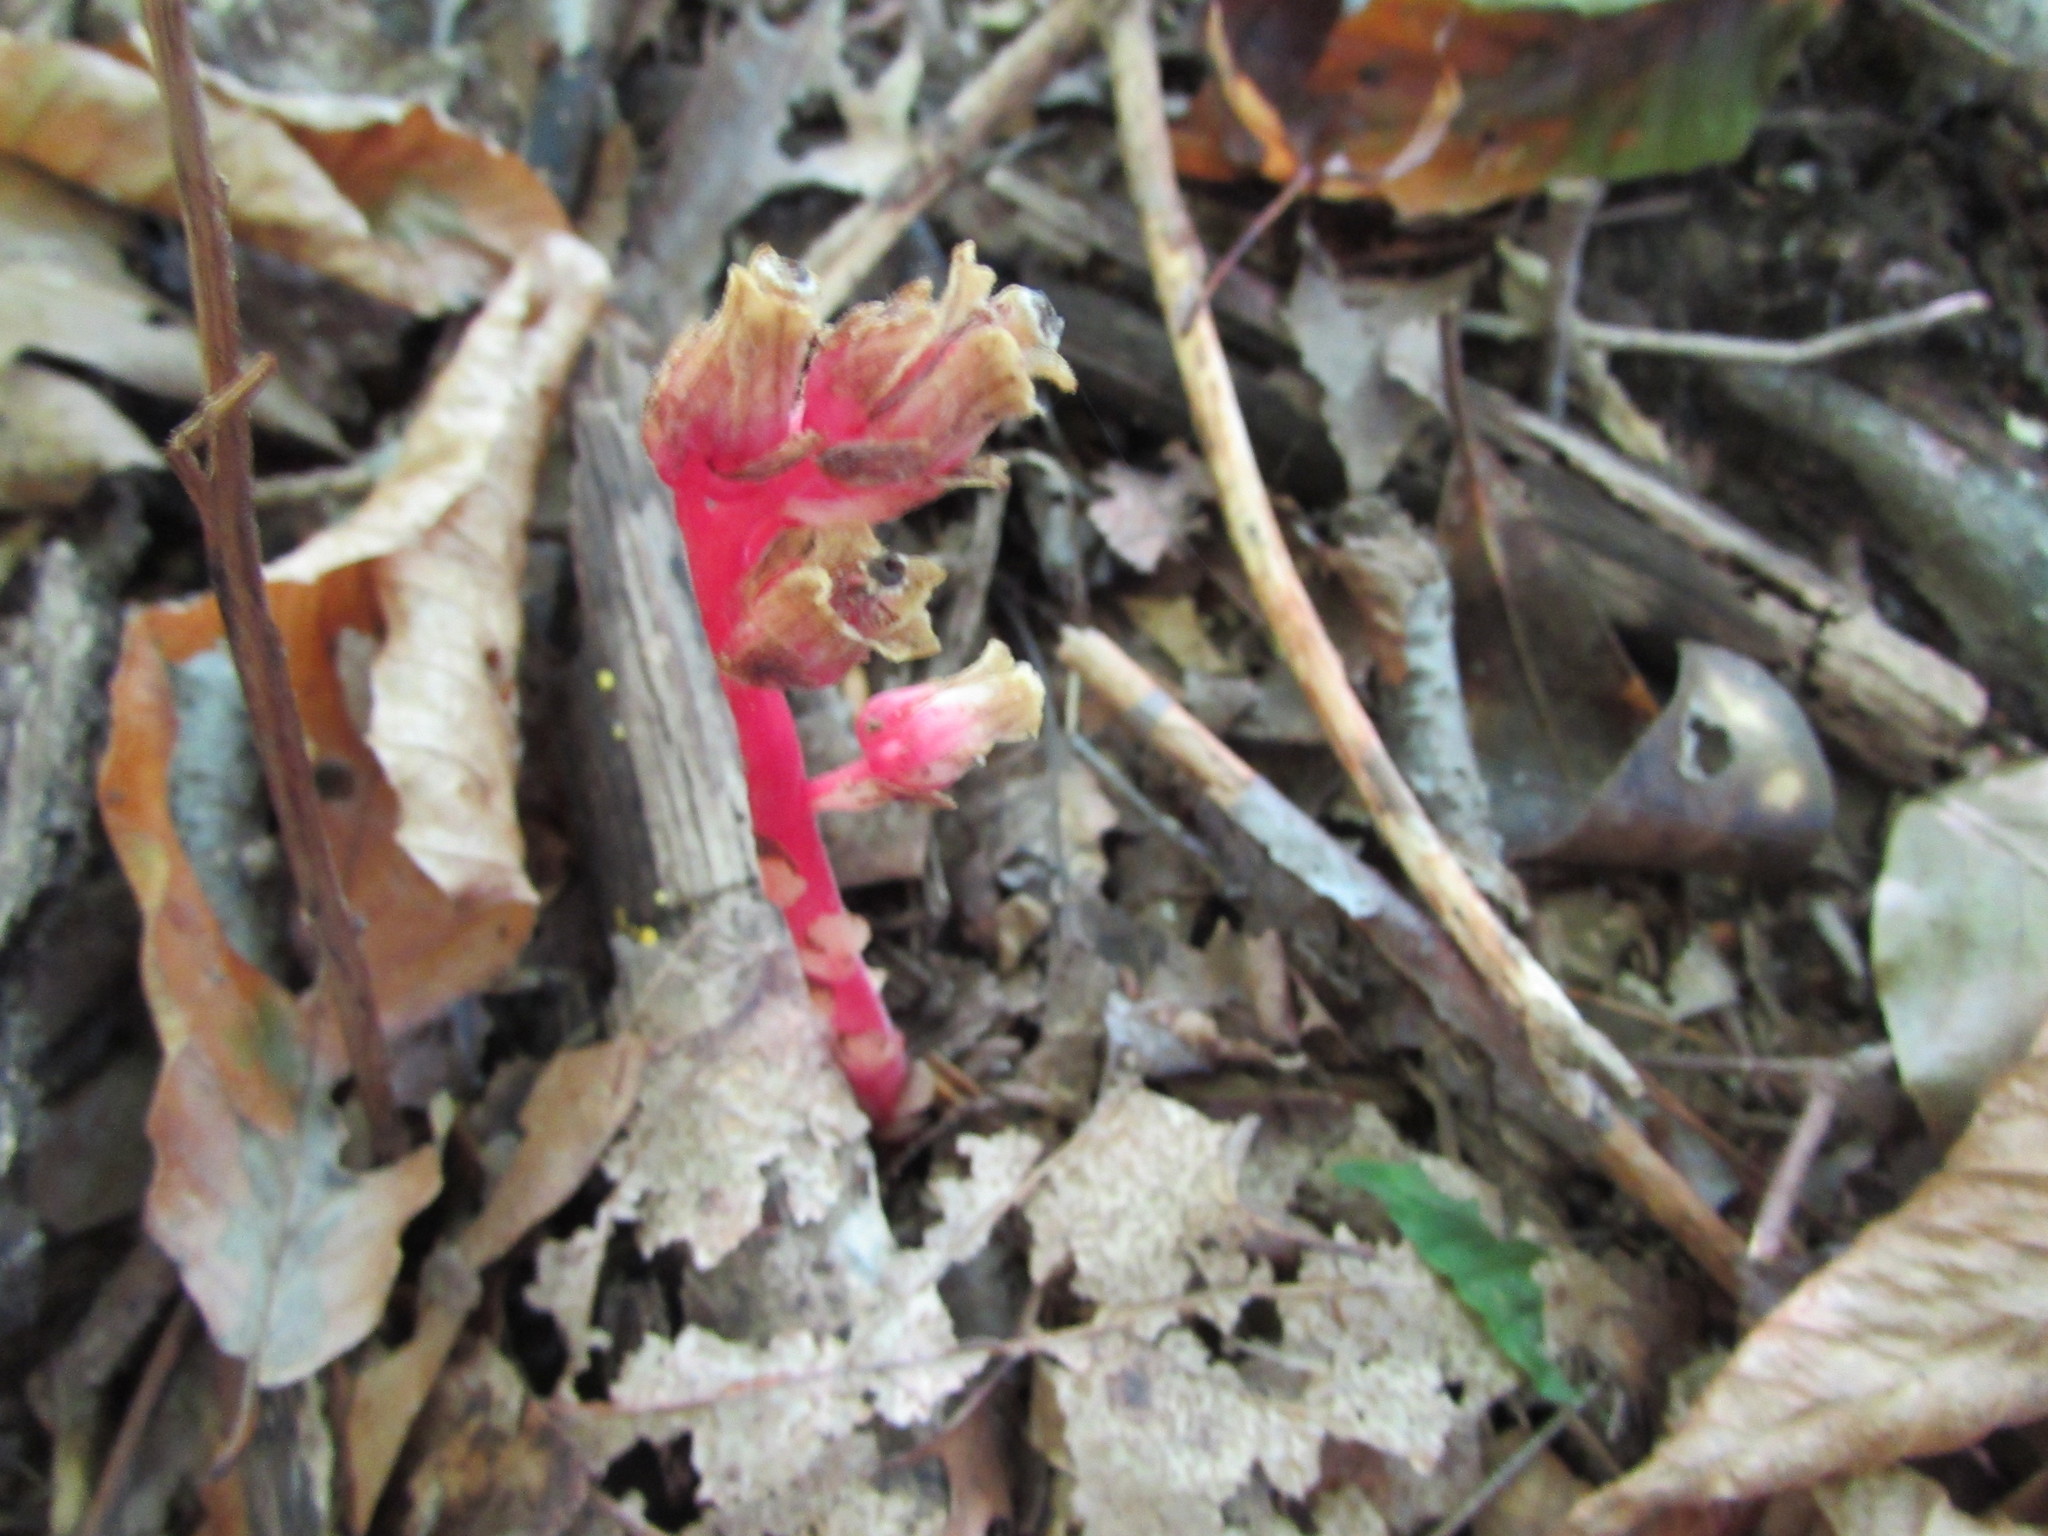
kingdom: Plantae
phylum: Tracheophyta
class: Magnoliopsida
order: Ericales
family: Ericaceae
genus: Hypopitys
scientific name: Hypopitys monotropa
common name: Yellow bird's-nest
